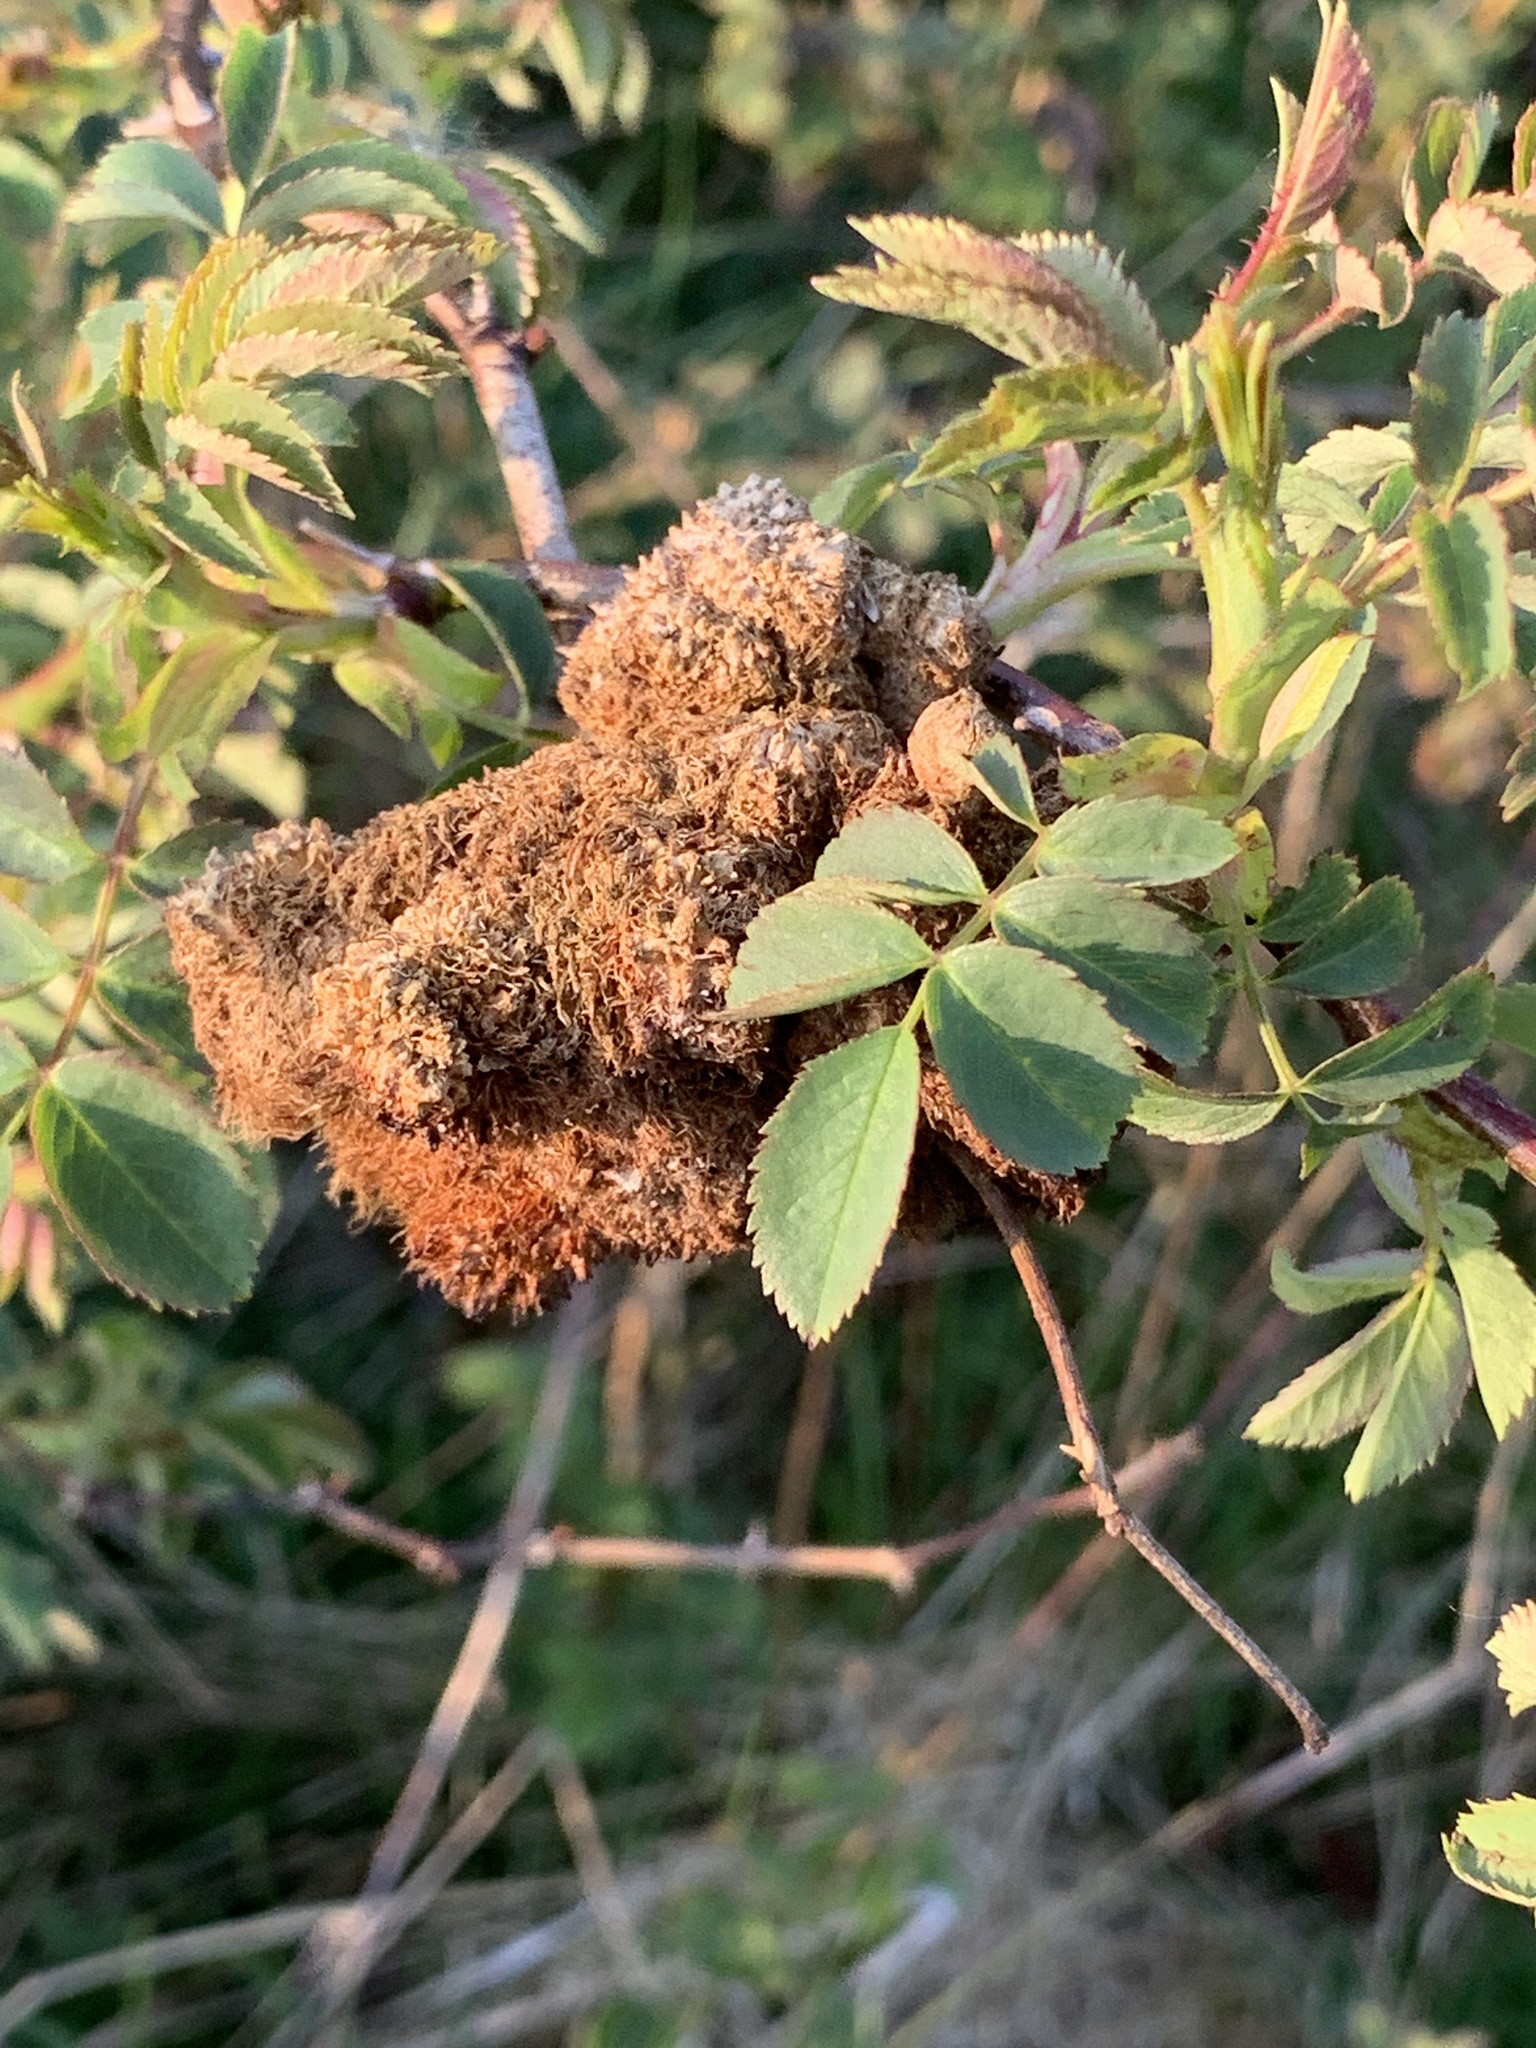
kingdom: Animalia
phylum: Arthropoda
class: Insecta
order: Hymenoptera
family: Cynipidae
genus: Diplolepis
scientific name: Diplolepis rosae
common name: Bedeguar gall
